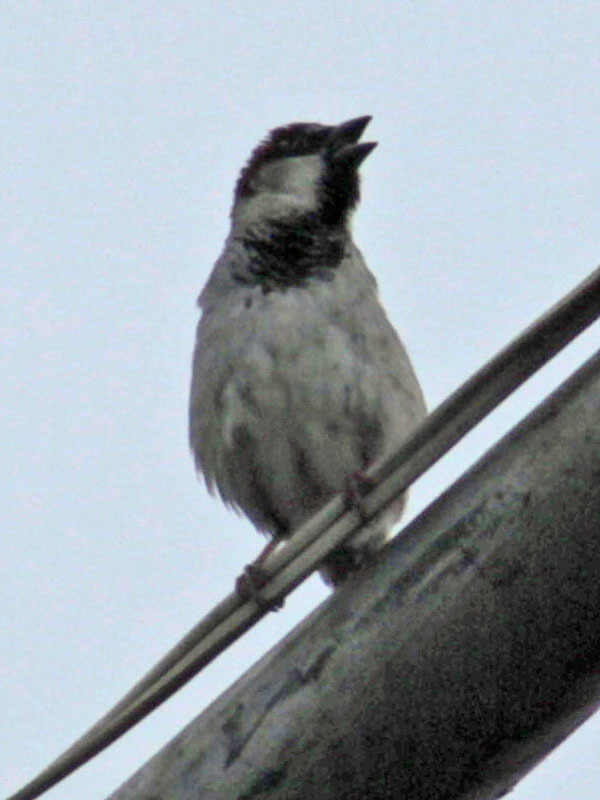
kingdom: Animalia
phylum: Chordata
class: Aves
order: Passeriformes
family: Passeridae
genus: Passer
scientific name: Passer domesticus
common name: House sparrow
